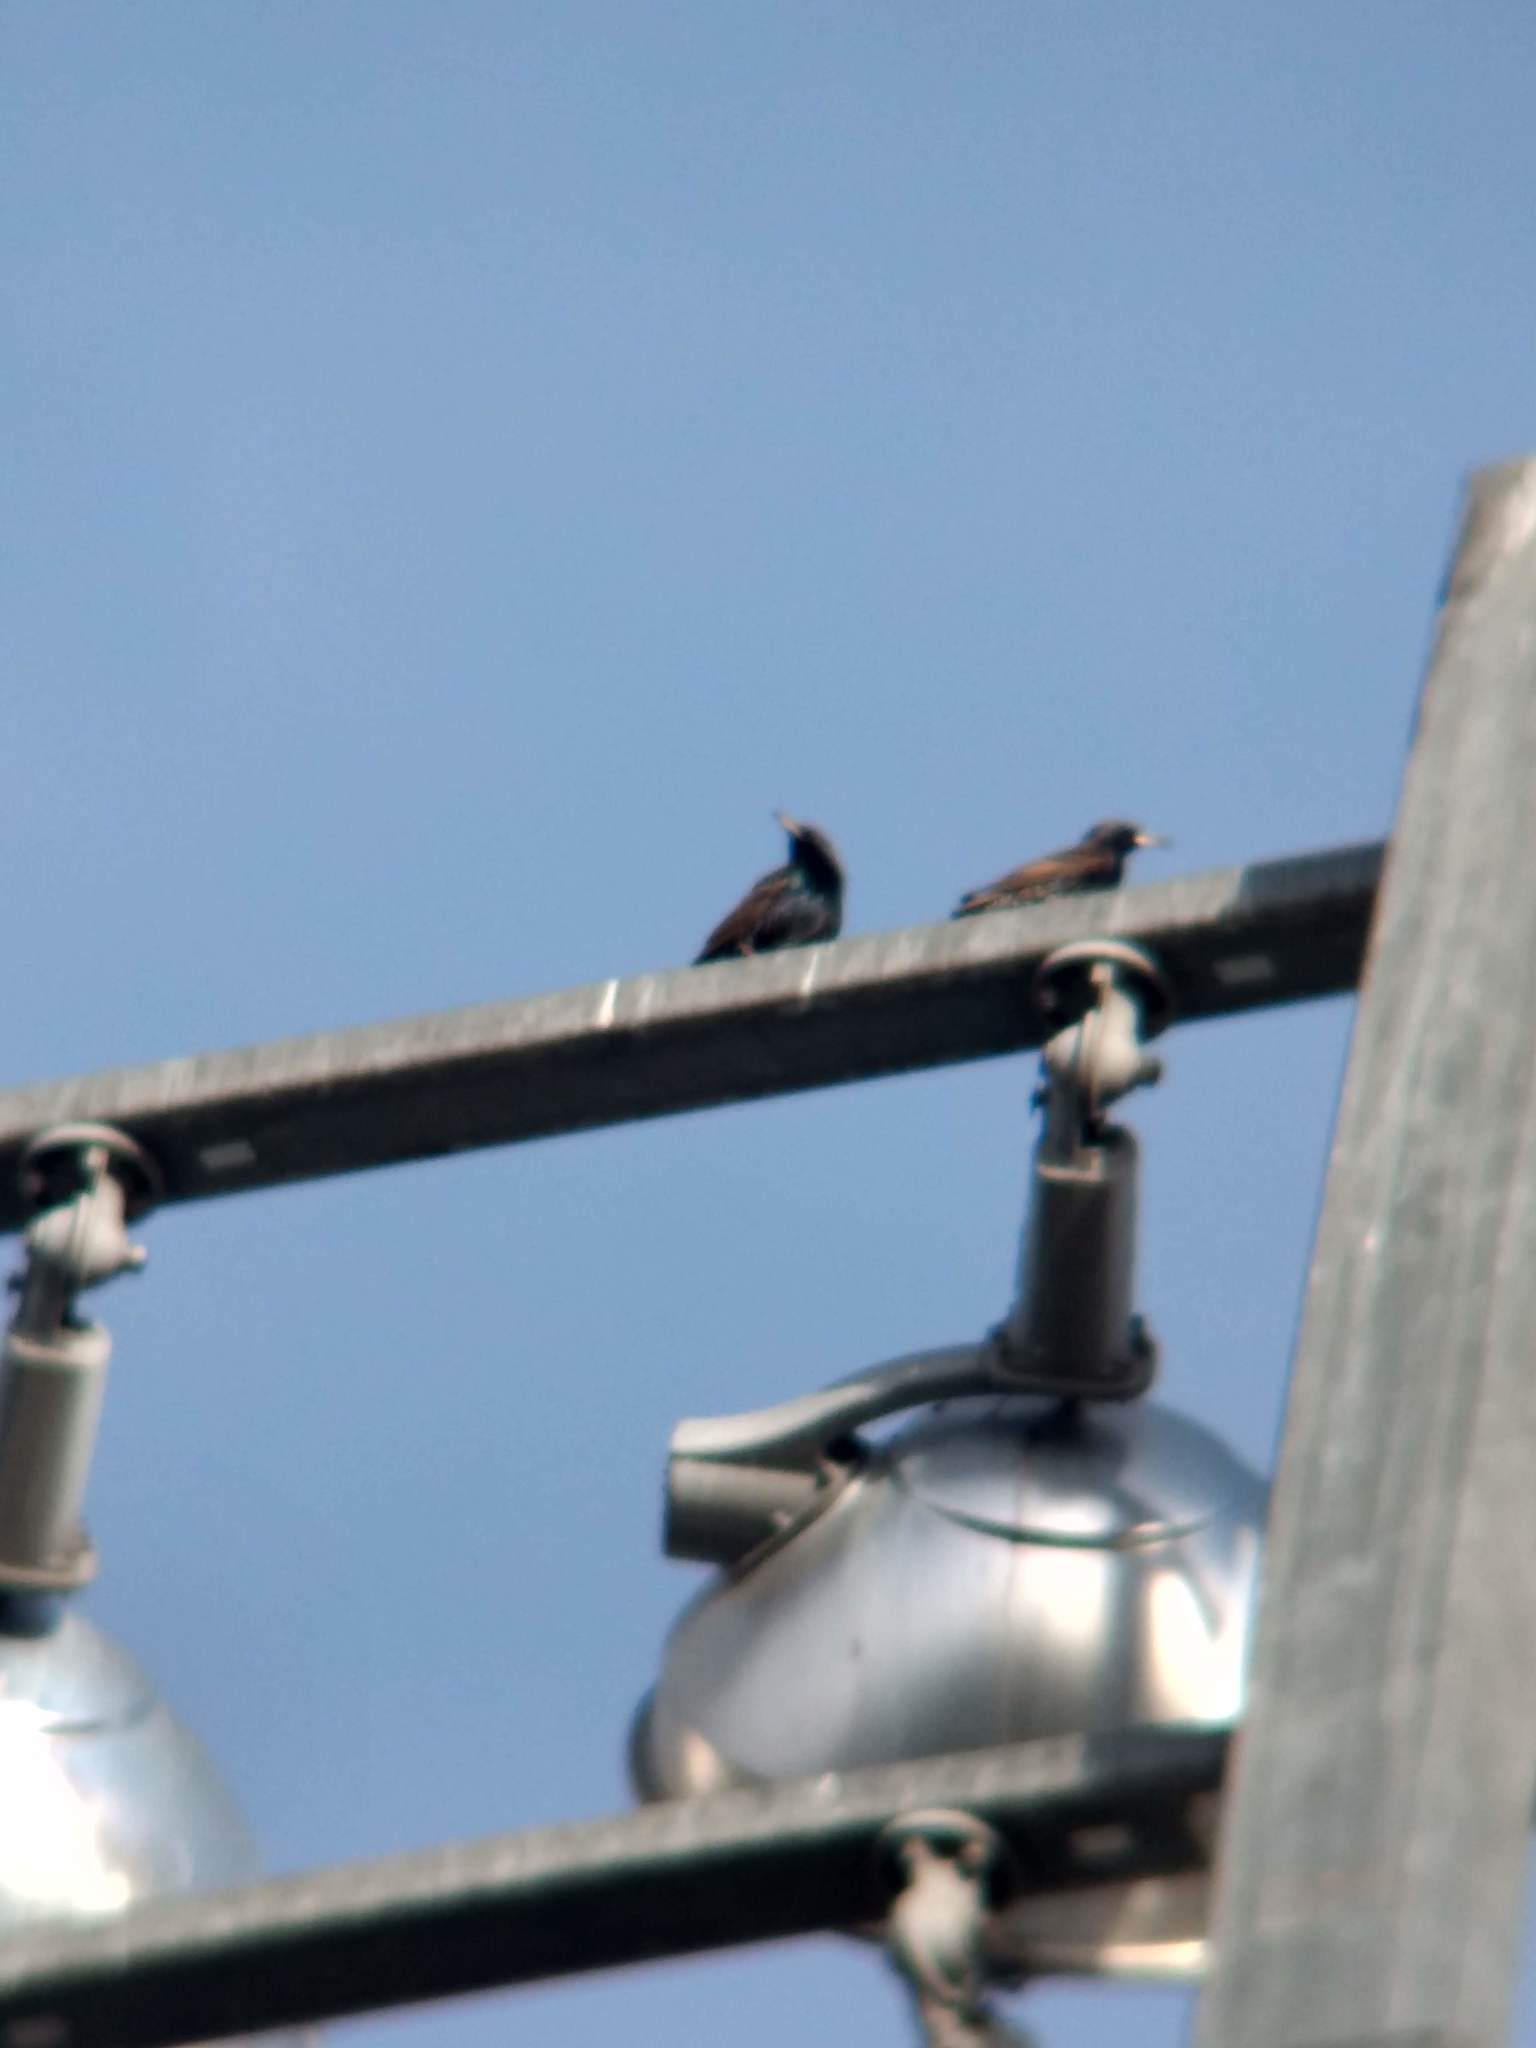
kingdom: Animalia
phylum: Chordata
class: Aves
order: Passeriformes
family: Sturnidae
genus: Sturnus
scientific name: Sturnus vulgaris
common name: Common starling
